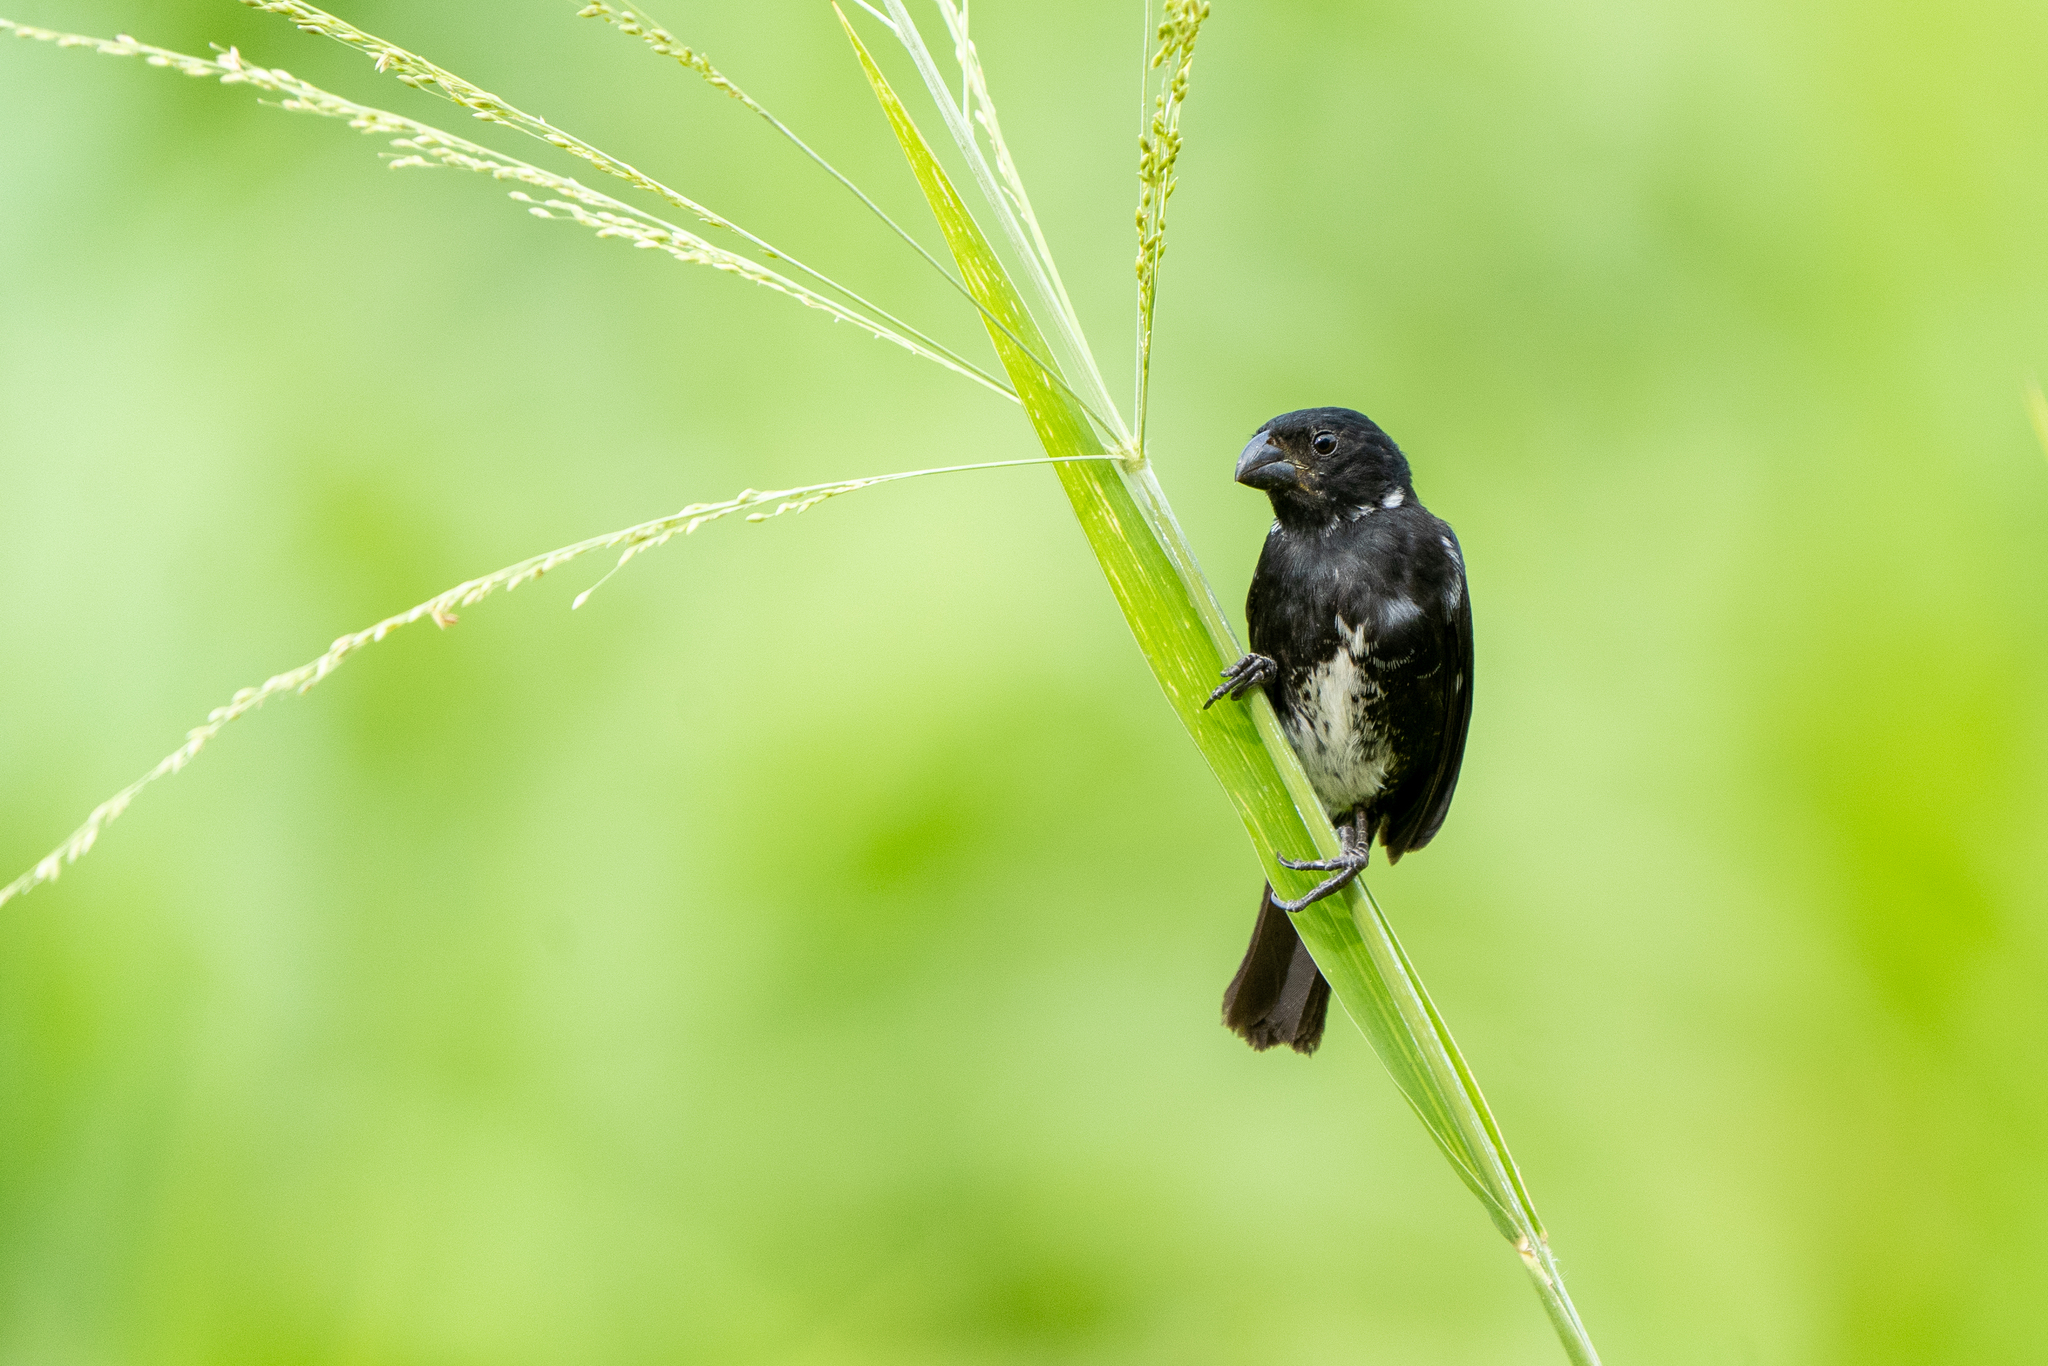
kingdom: Animalia
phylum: Chordata
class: Aves
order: Passeriformes
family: Thraupidae
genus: Sporophila
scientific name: Sporophila corvina
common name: Variable seedeater
